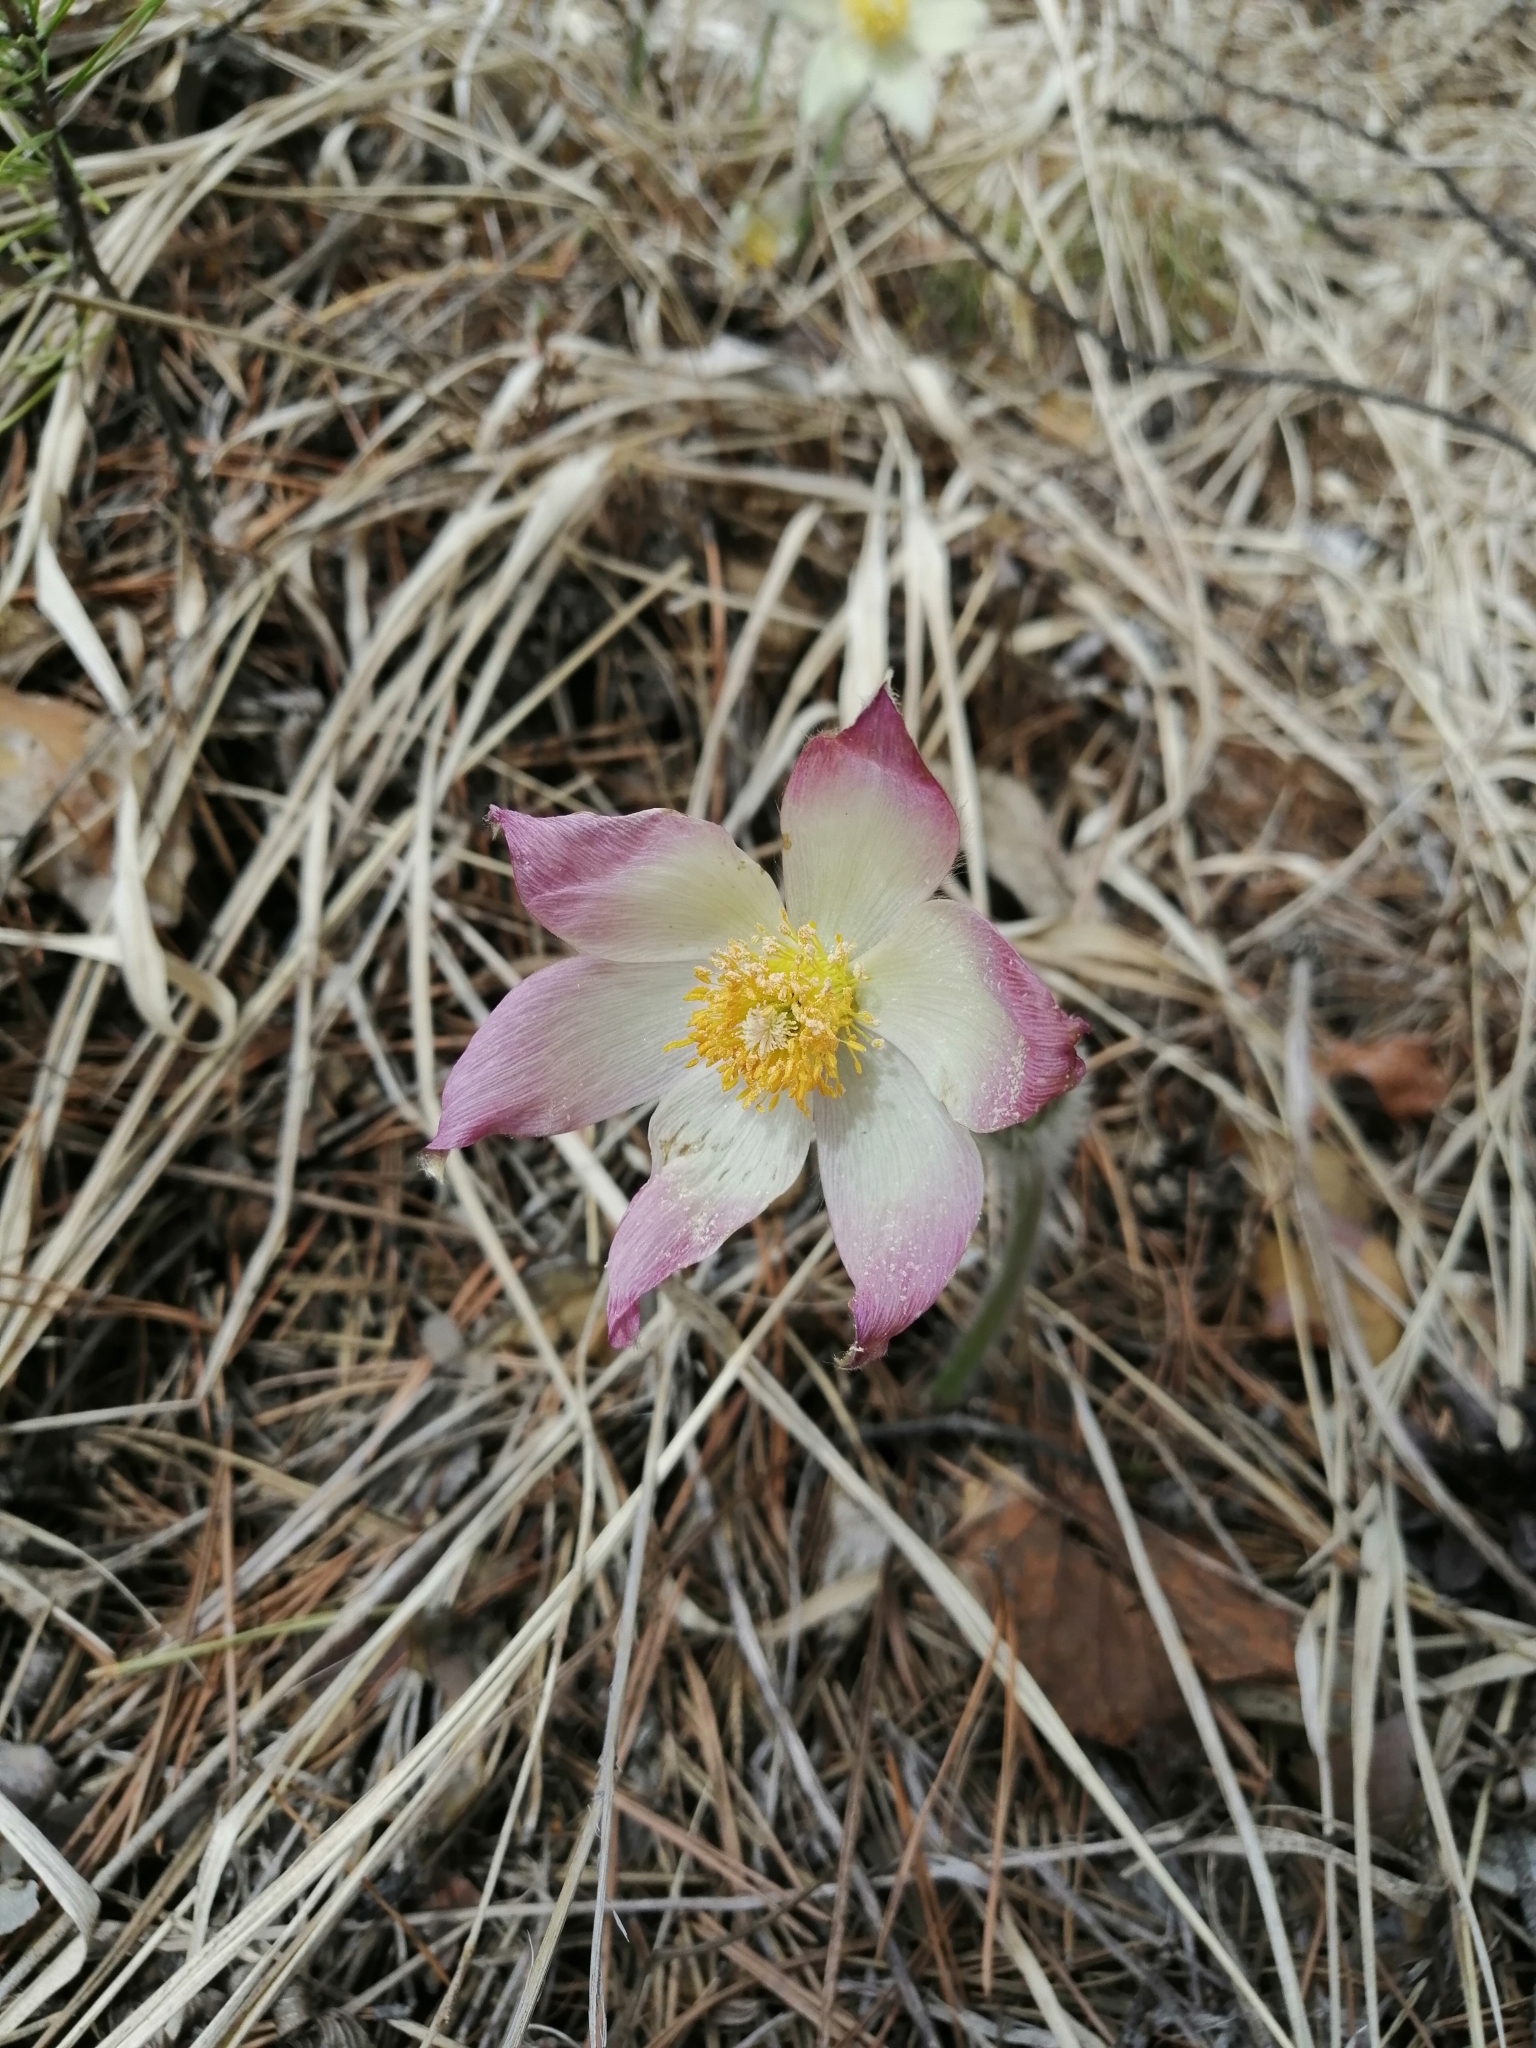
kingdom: Plantae
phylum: Tracheophyta
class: Magnoliopsida
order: Ranunculales
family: Ranunculaceae
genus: Pulsatilla
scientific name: Pulsatilla patens
